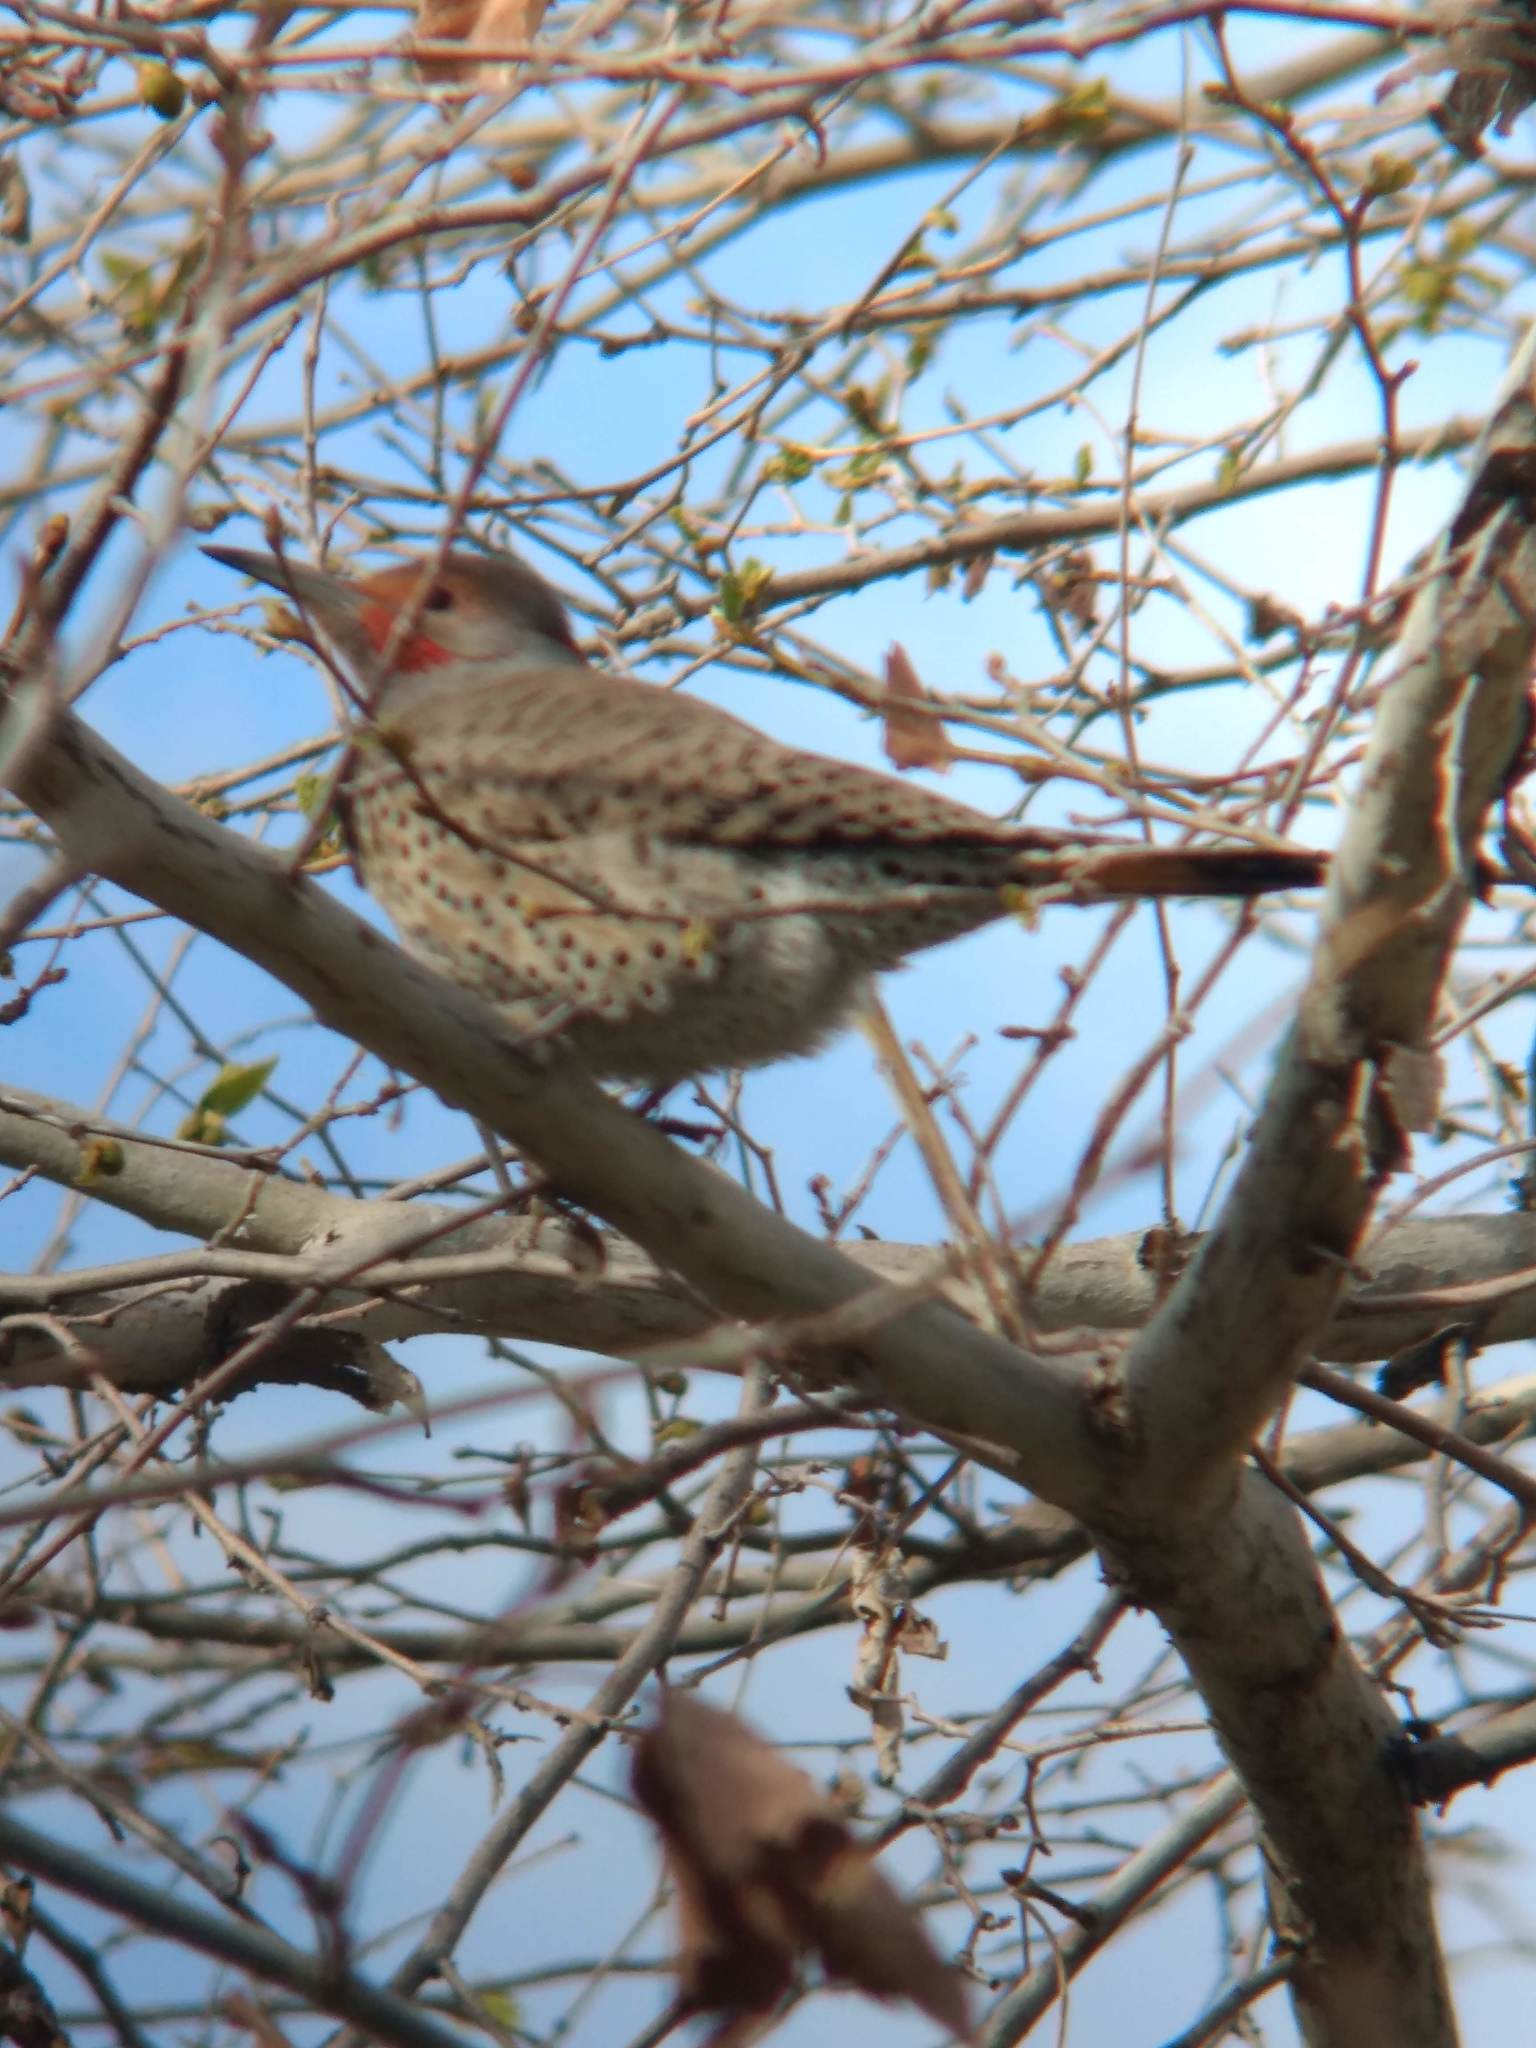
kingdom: Animalia
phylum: Chordata
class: Aves
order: Piciformes
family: Picidae
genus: Colaptes
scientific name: Colaptes auratus
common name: Northern flicker
